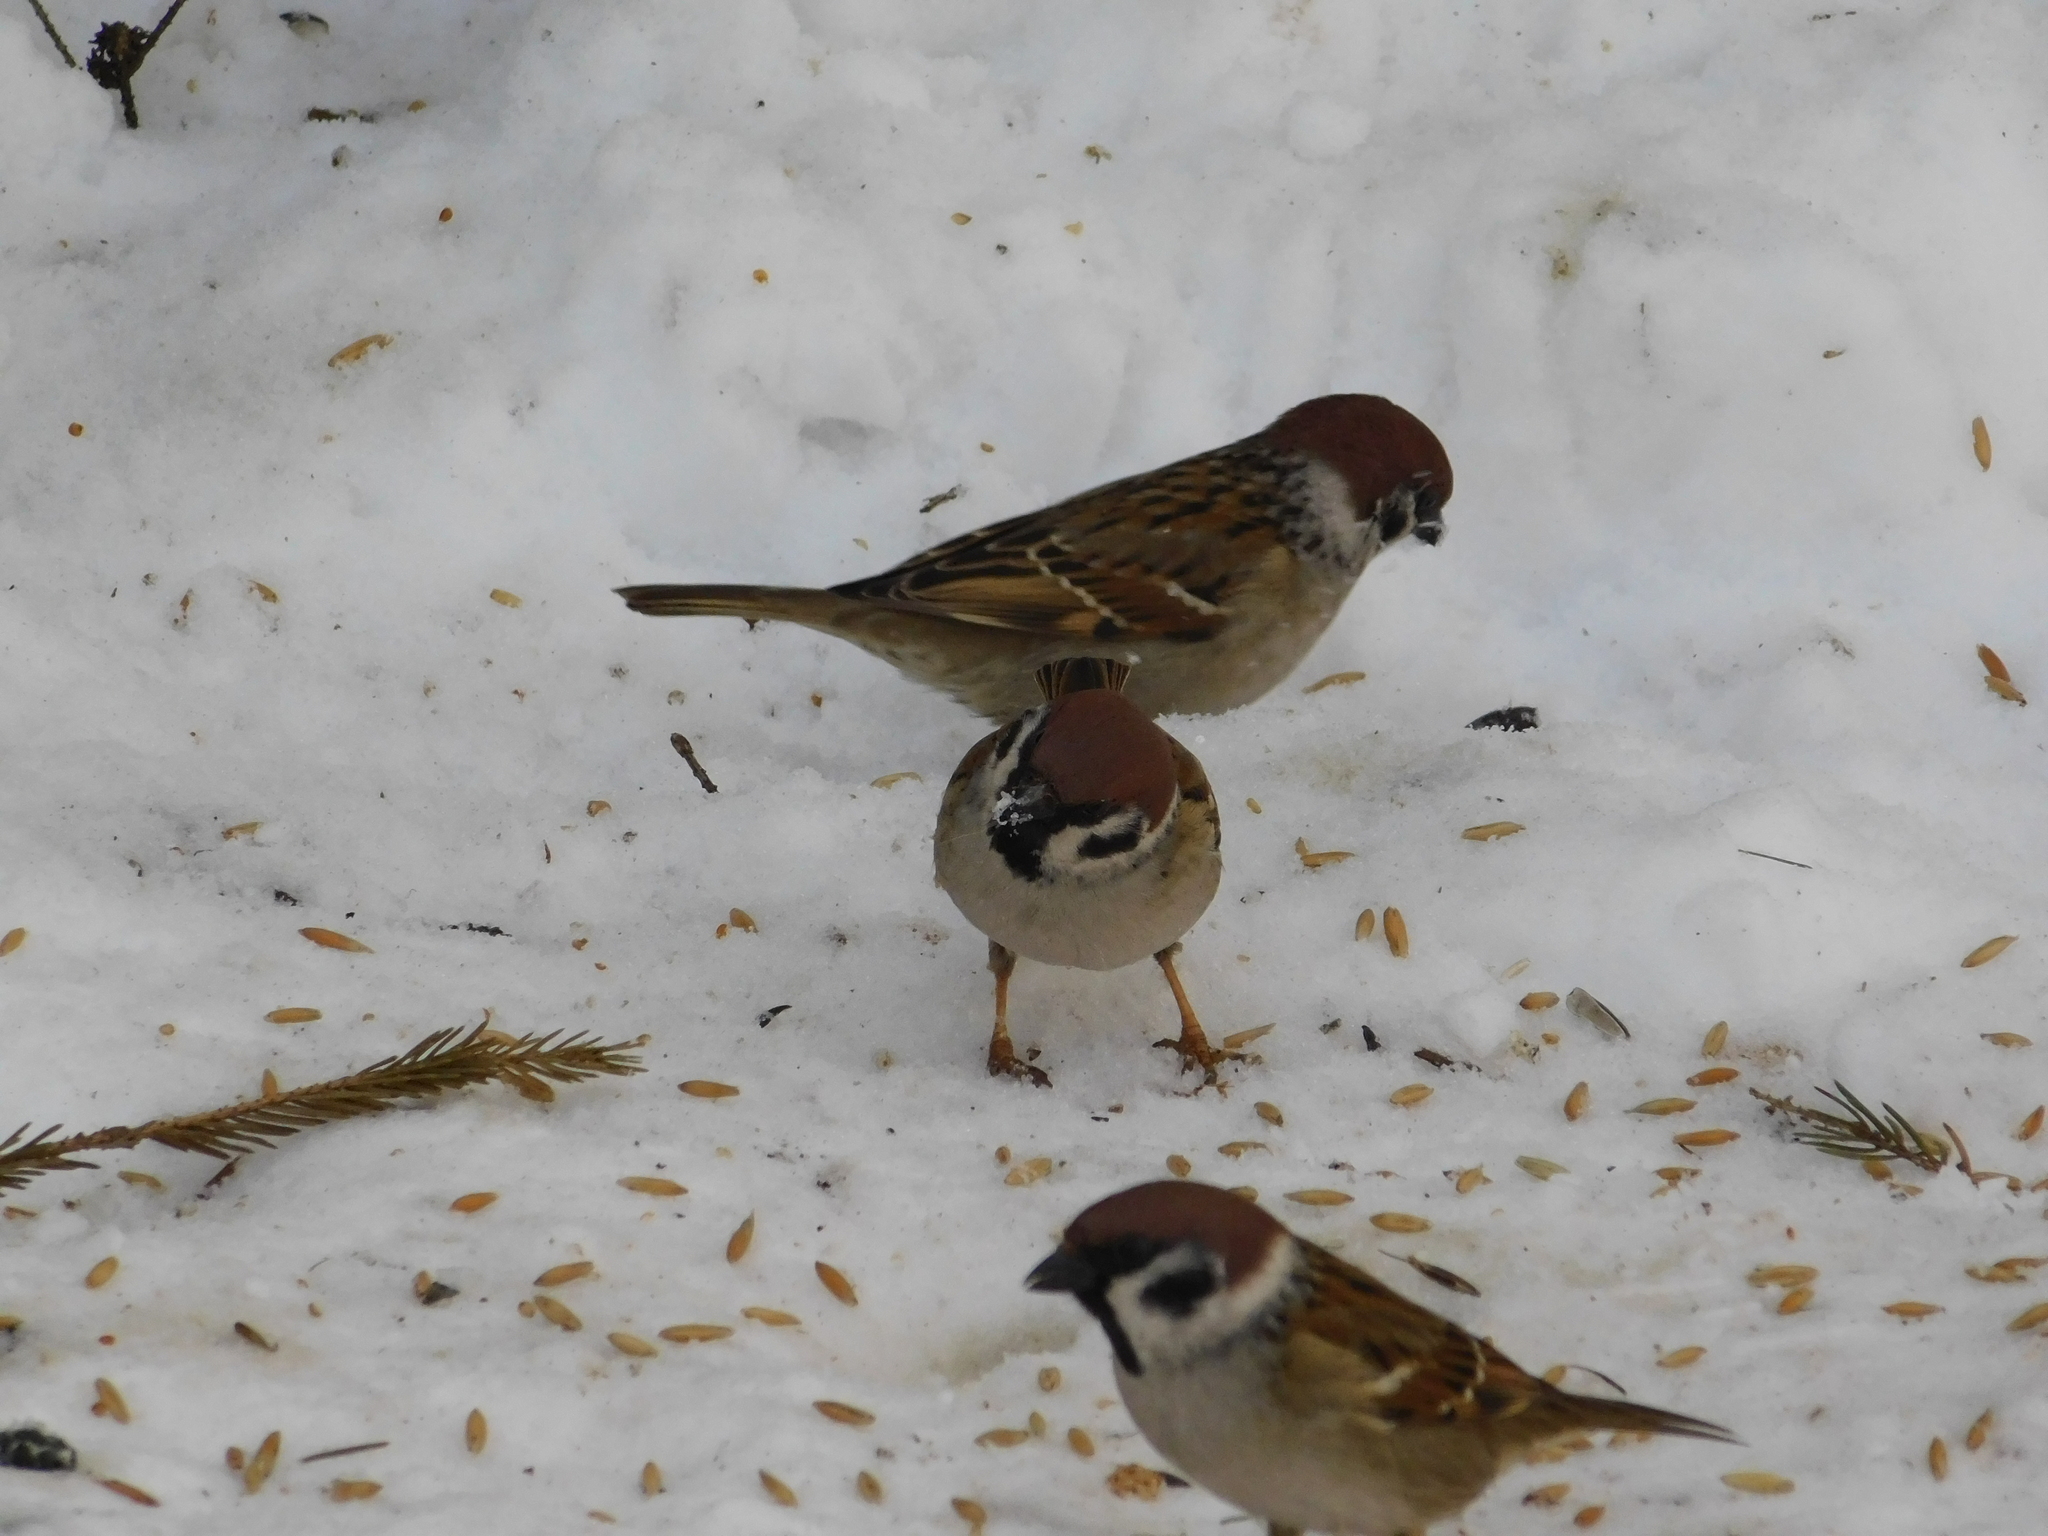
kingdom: Animalia
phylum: Chordata
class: Aves
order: Passeriformes
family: Passeridae
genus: Passer
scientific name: Passer montanus
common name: Eurasian tree sparrow
